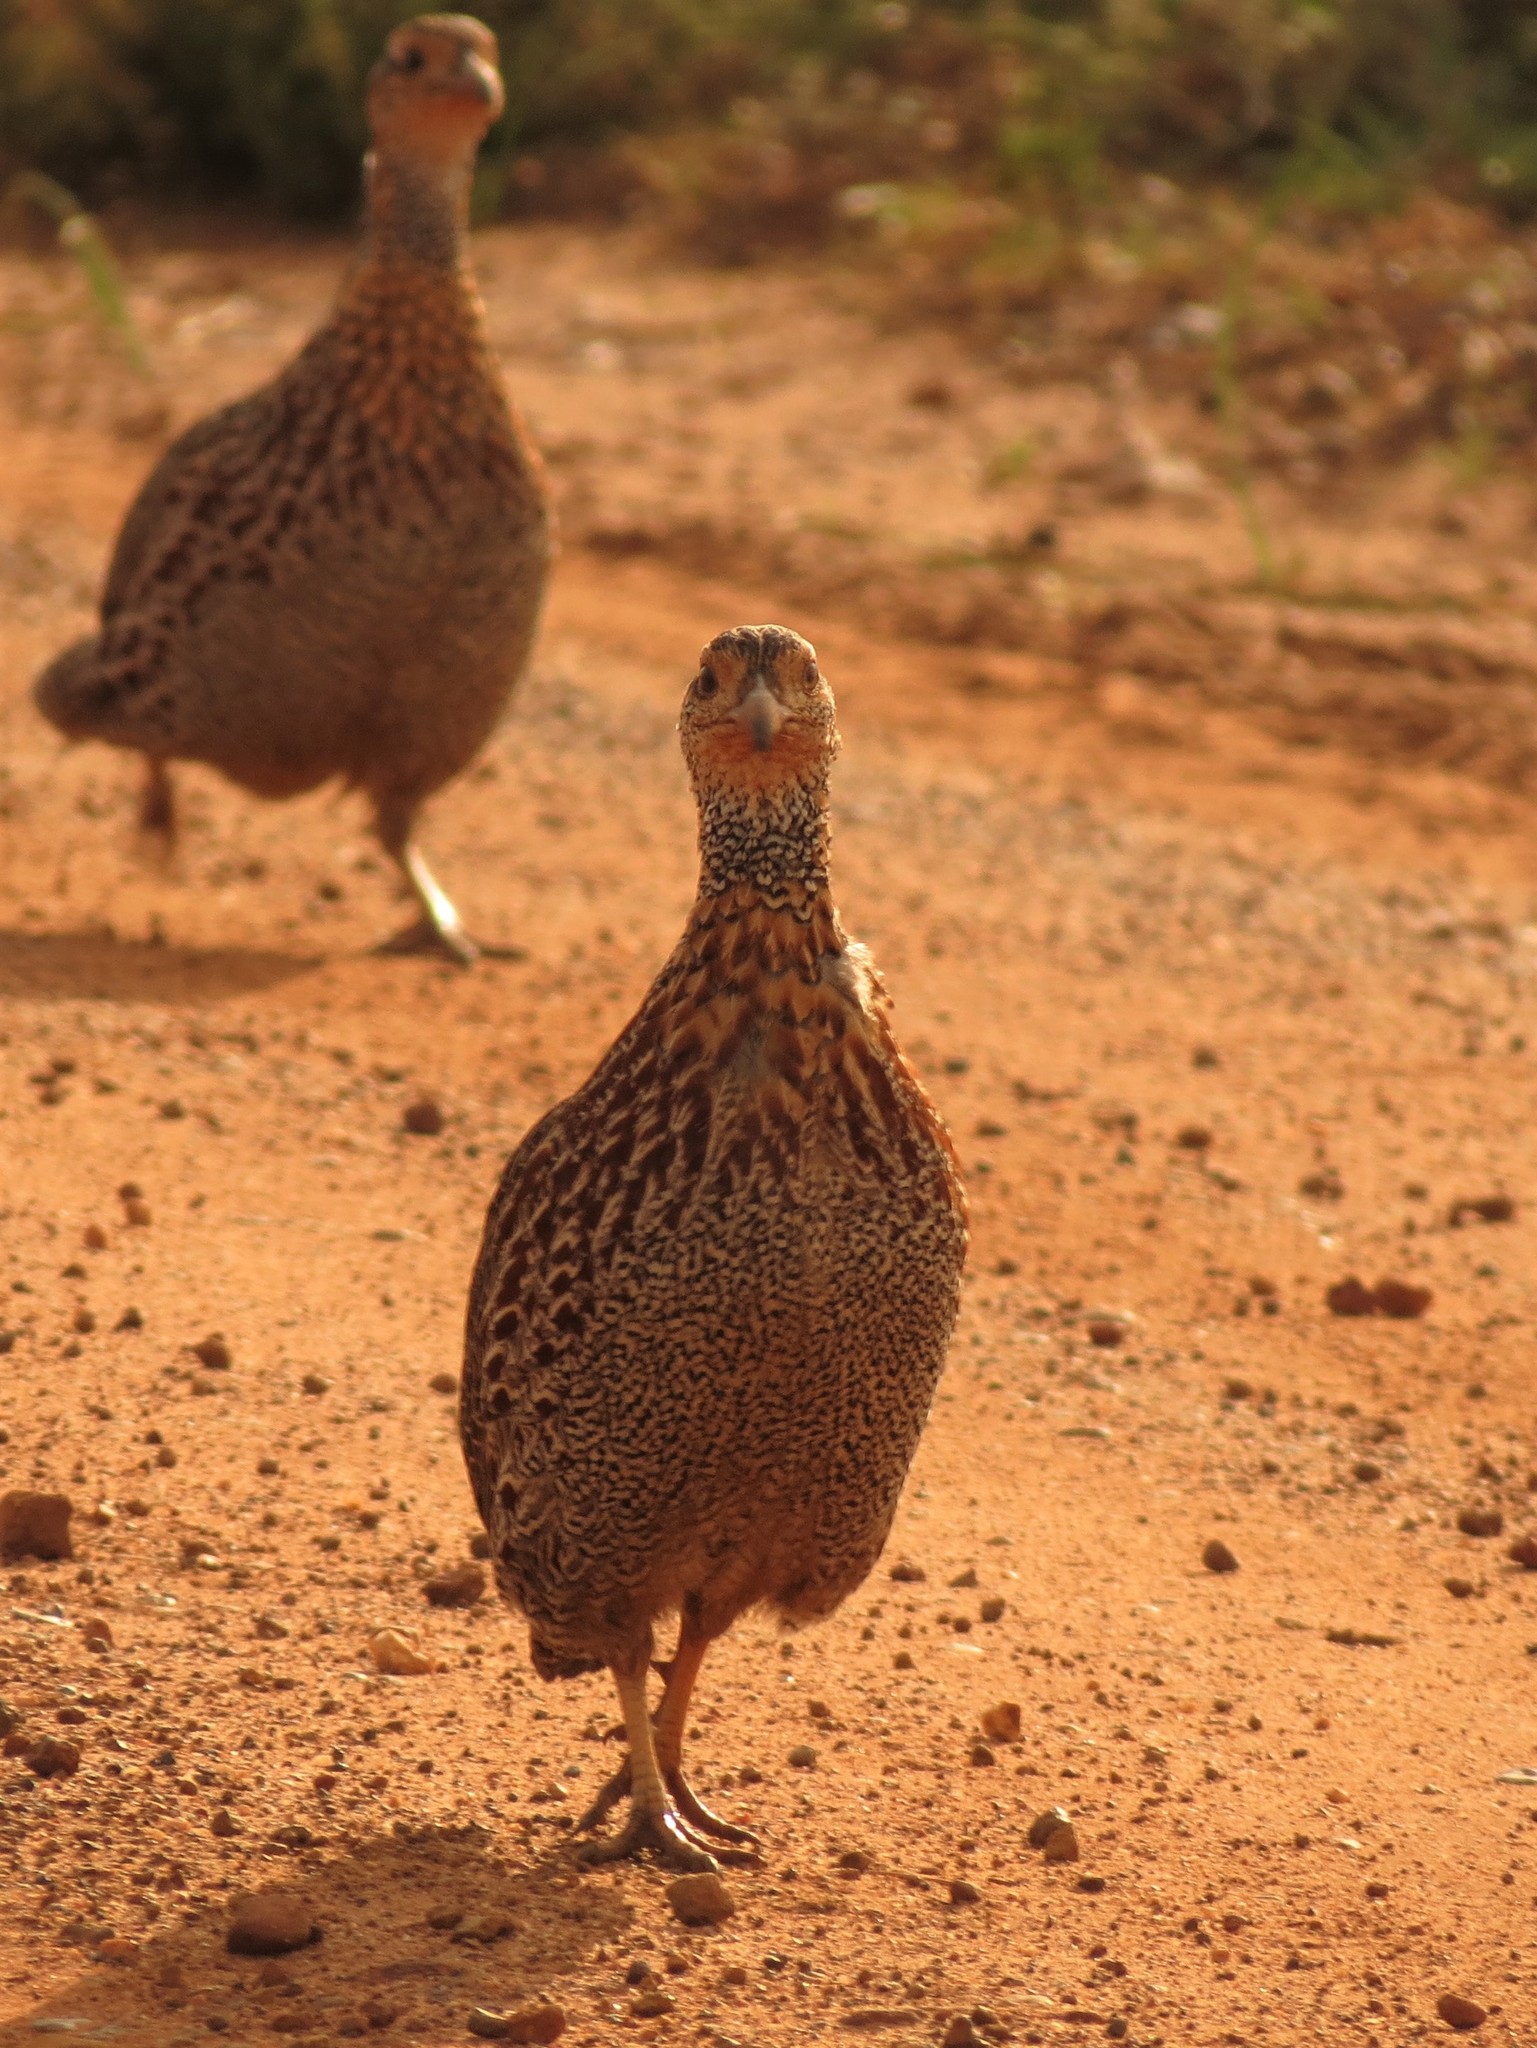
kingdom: Animalia
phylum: Chordata
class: Aves
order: Galliformes
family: Phasianidae
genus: Scleroptila
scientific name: Scleroptila afra
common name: Grey-winged francolin
